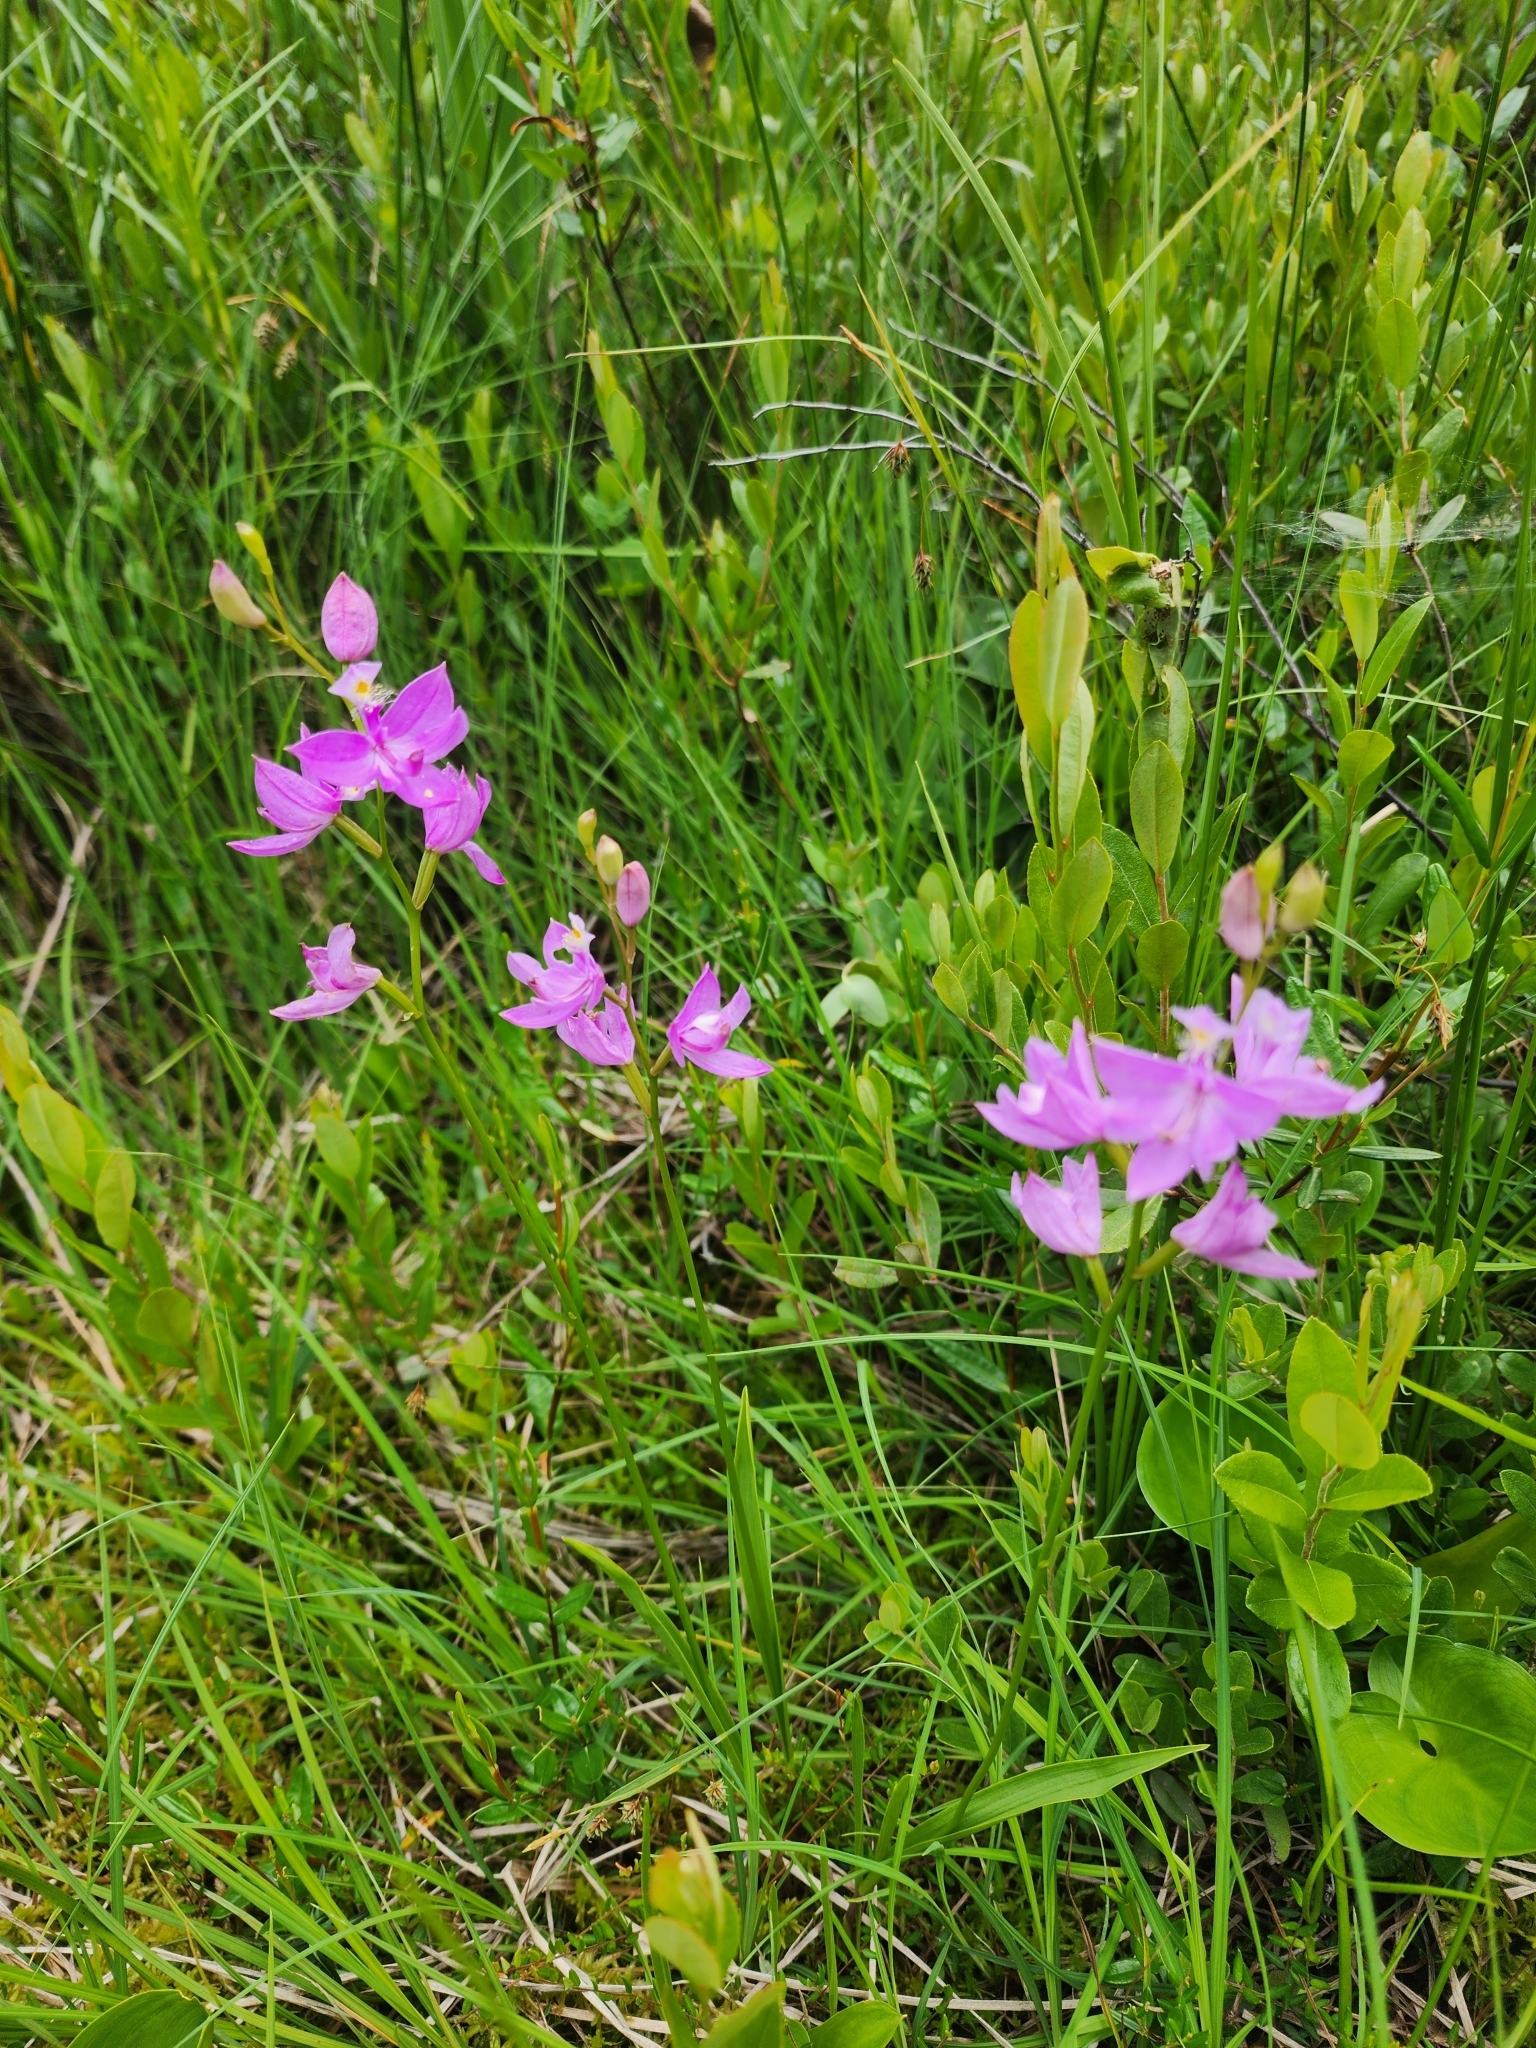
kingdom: Plantae
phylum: Tracheophyta
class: Liliopsida
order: Asparagales
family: Orchidaceae
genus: Calopogon
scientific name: Calopogon tuberosus
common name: Grass-pink
